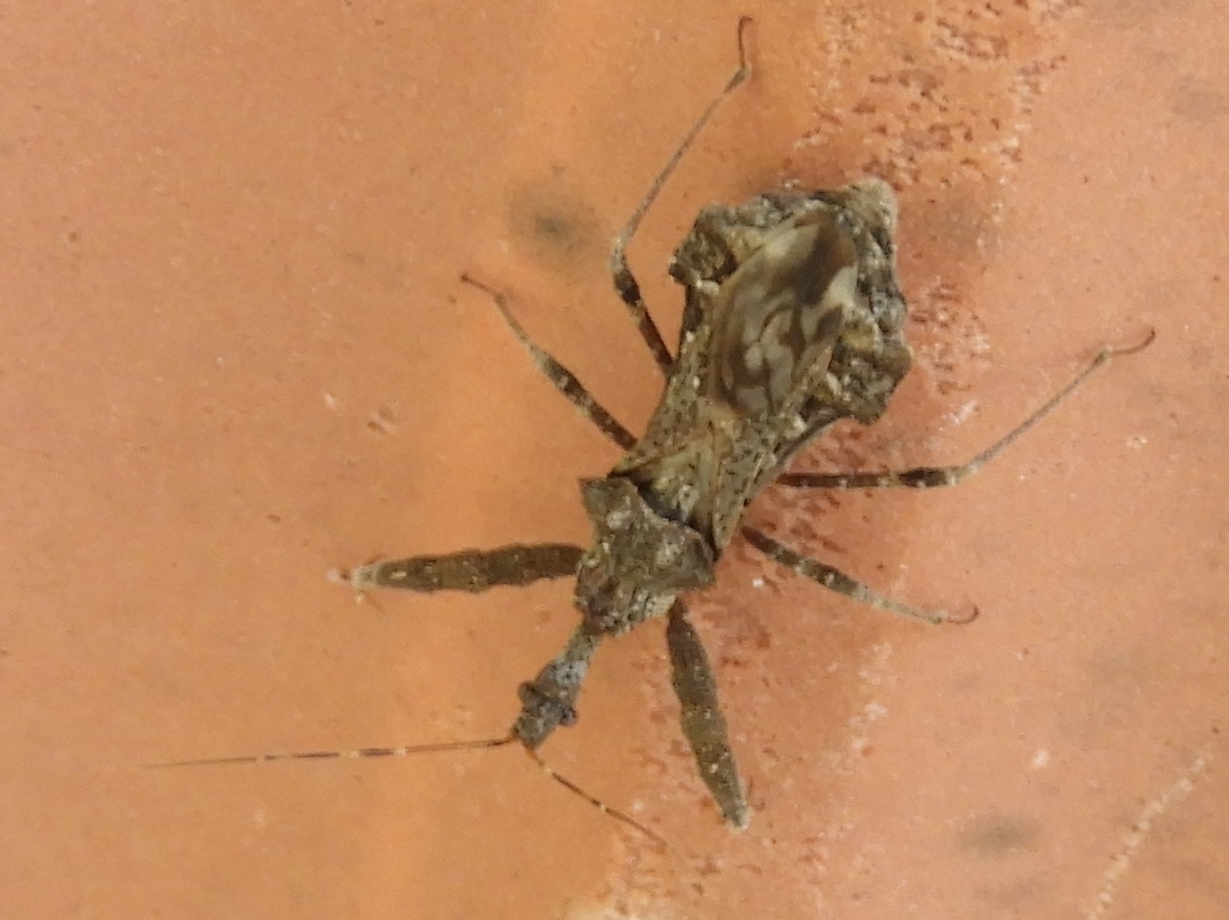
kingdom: Animalia
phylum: Arthropoda
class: Insecta
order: Hemiptera
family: Reduviidae
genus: Sinea
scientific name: Sinea
